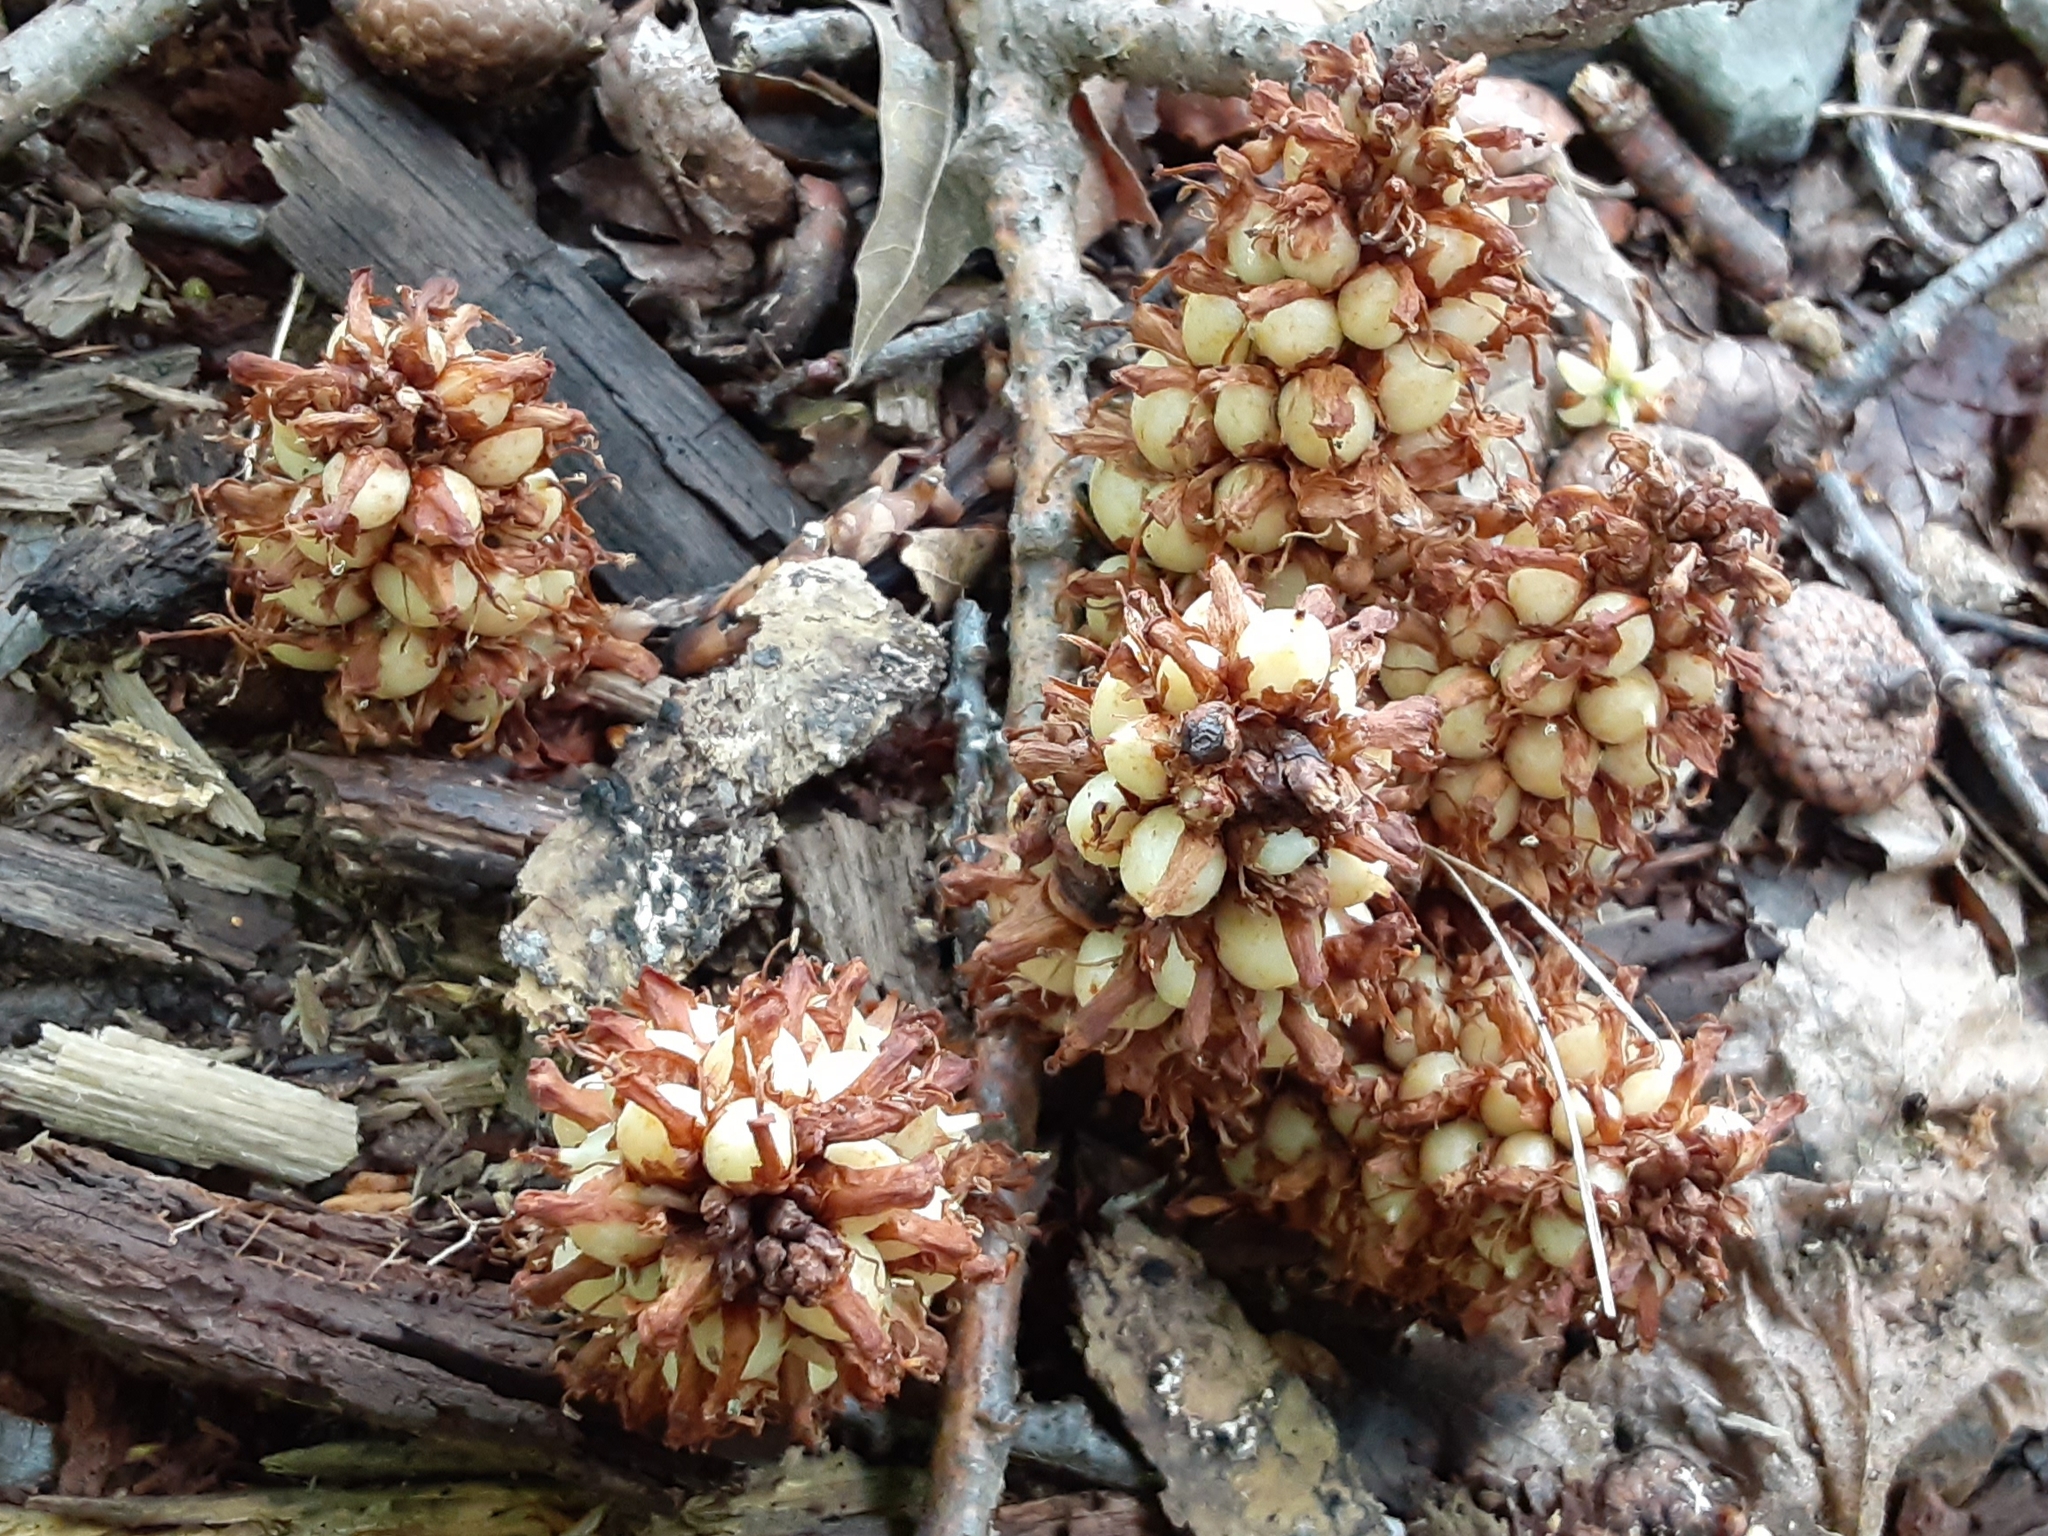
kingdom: Plantae
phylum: Tracheophyta
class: Magnoliopsida
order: Lamiales
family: Orobanchaceae
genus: Conopholis
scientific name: Conopholis americana
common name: American cancer-root
